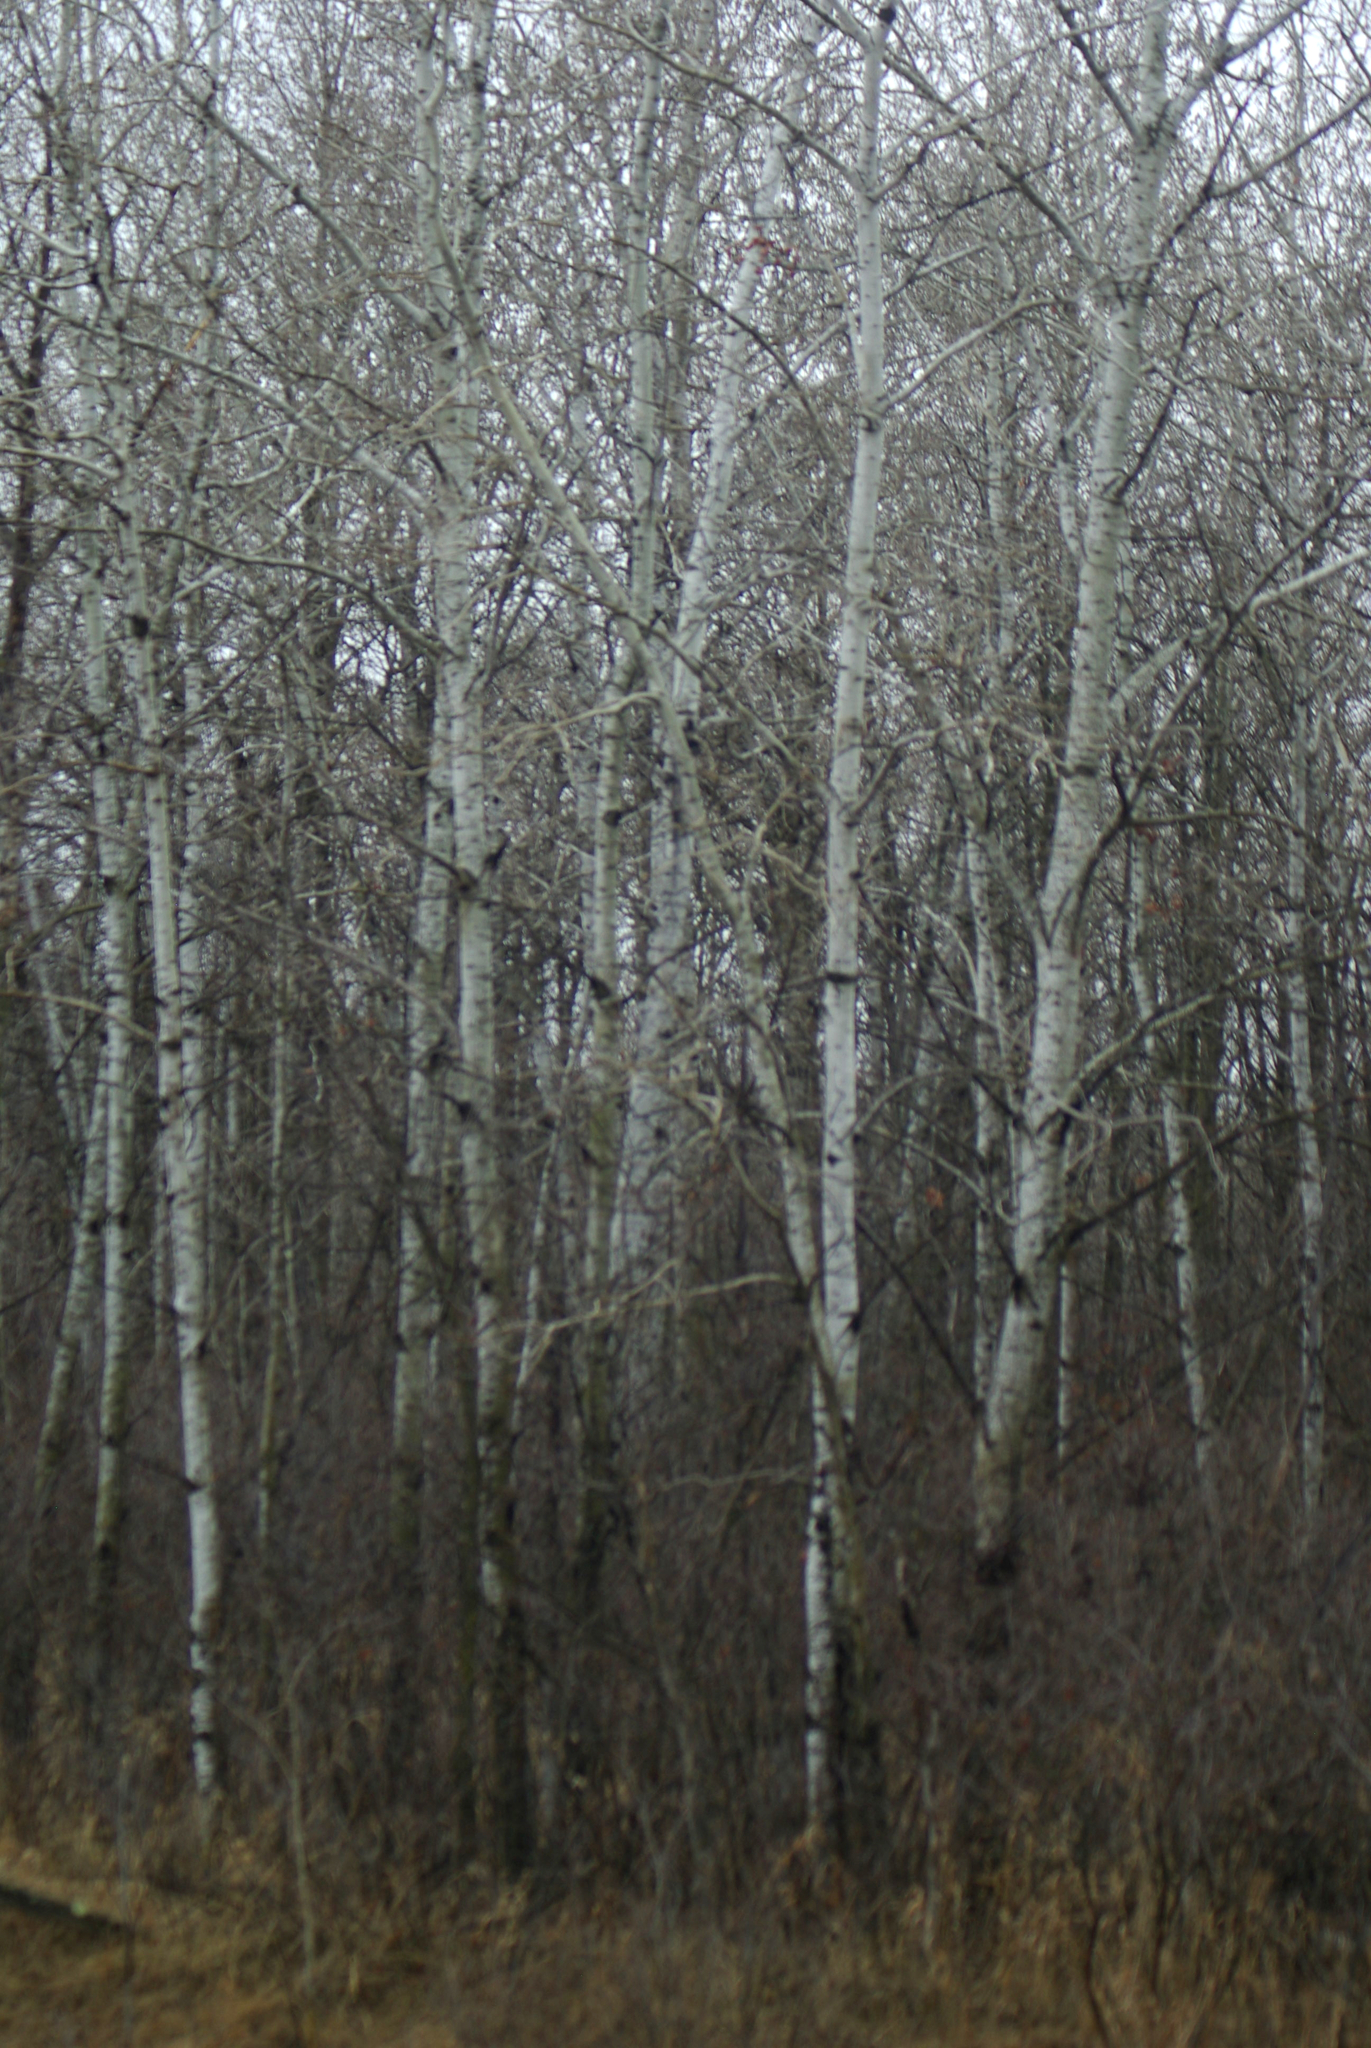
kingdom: Plantae
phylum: Tracheophyta
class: Magnoliopsida
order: Malpighiales
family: Salicaceae
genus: Populus
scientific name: Populus tremuloides
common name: Quaking aspen
